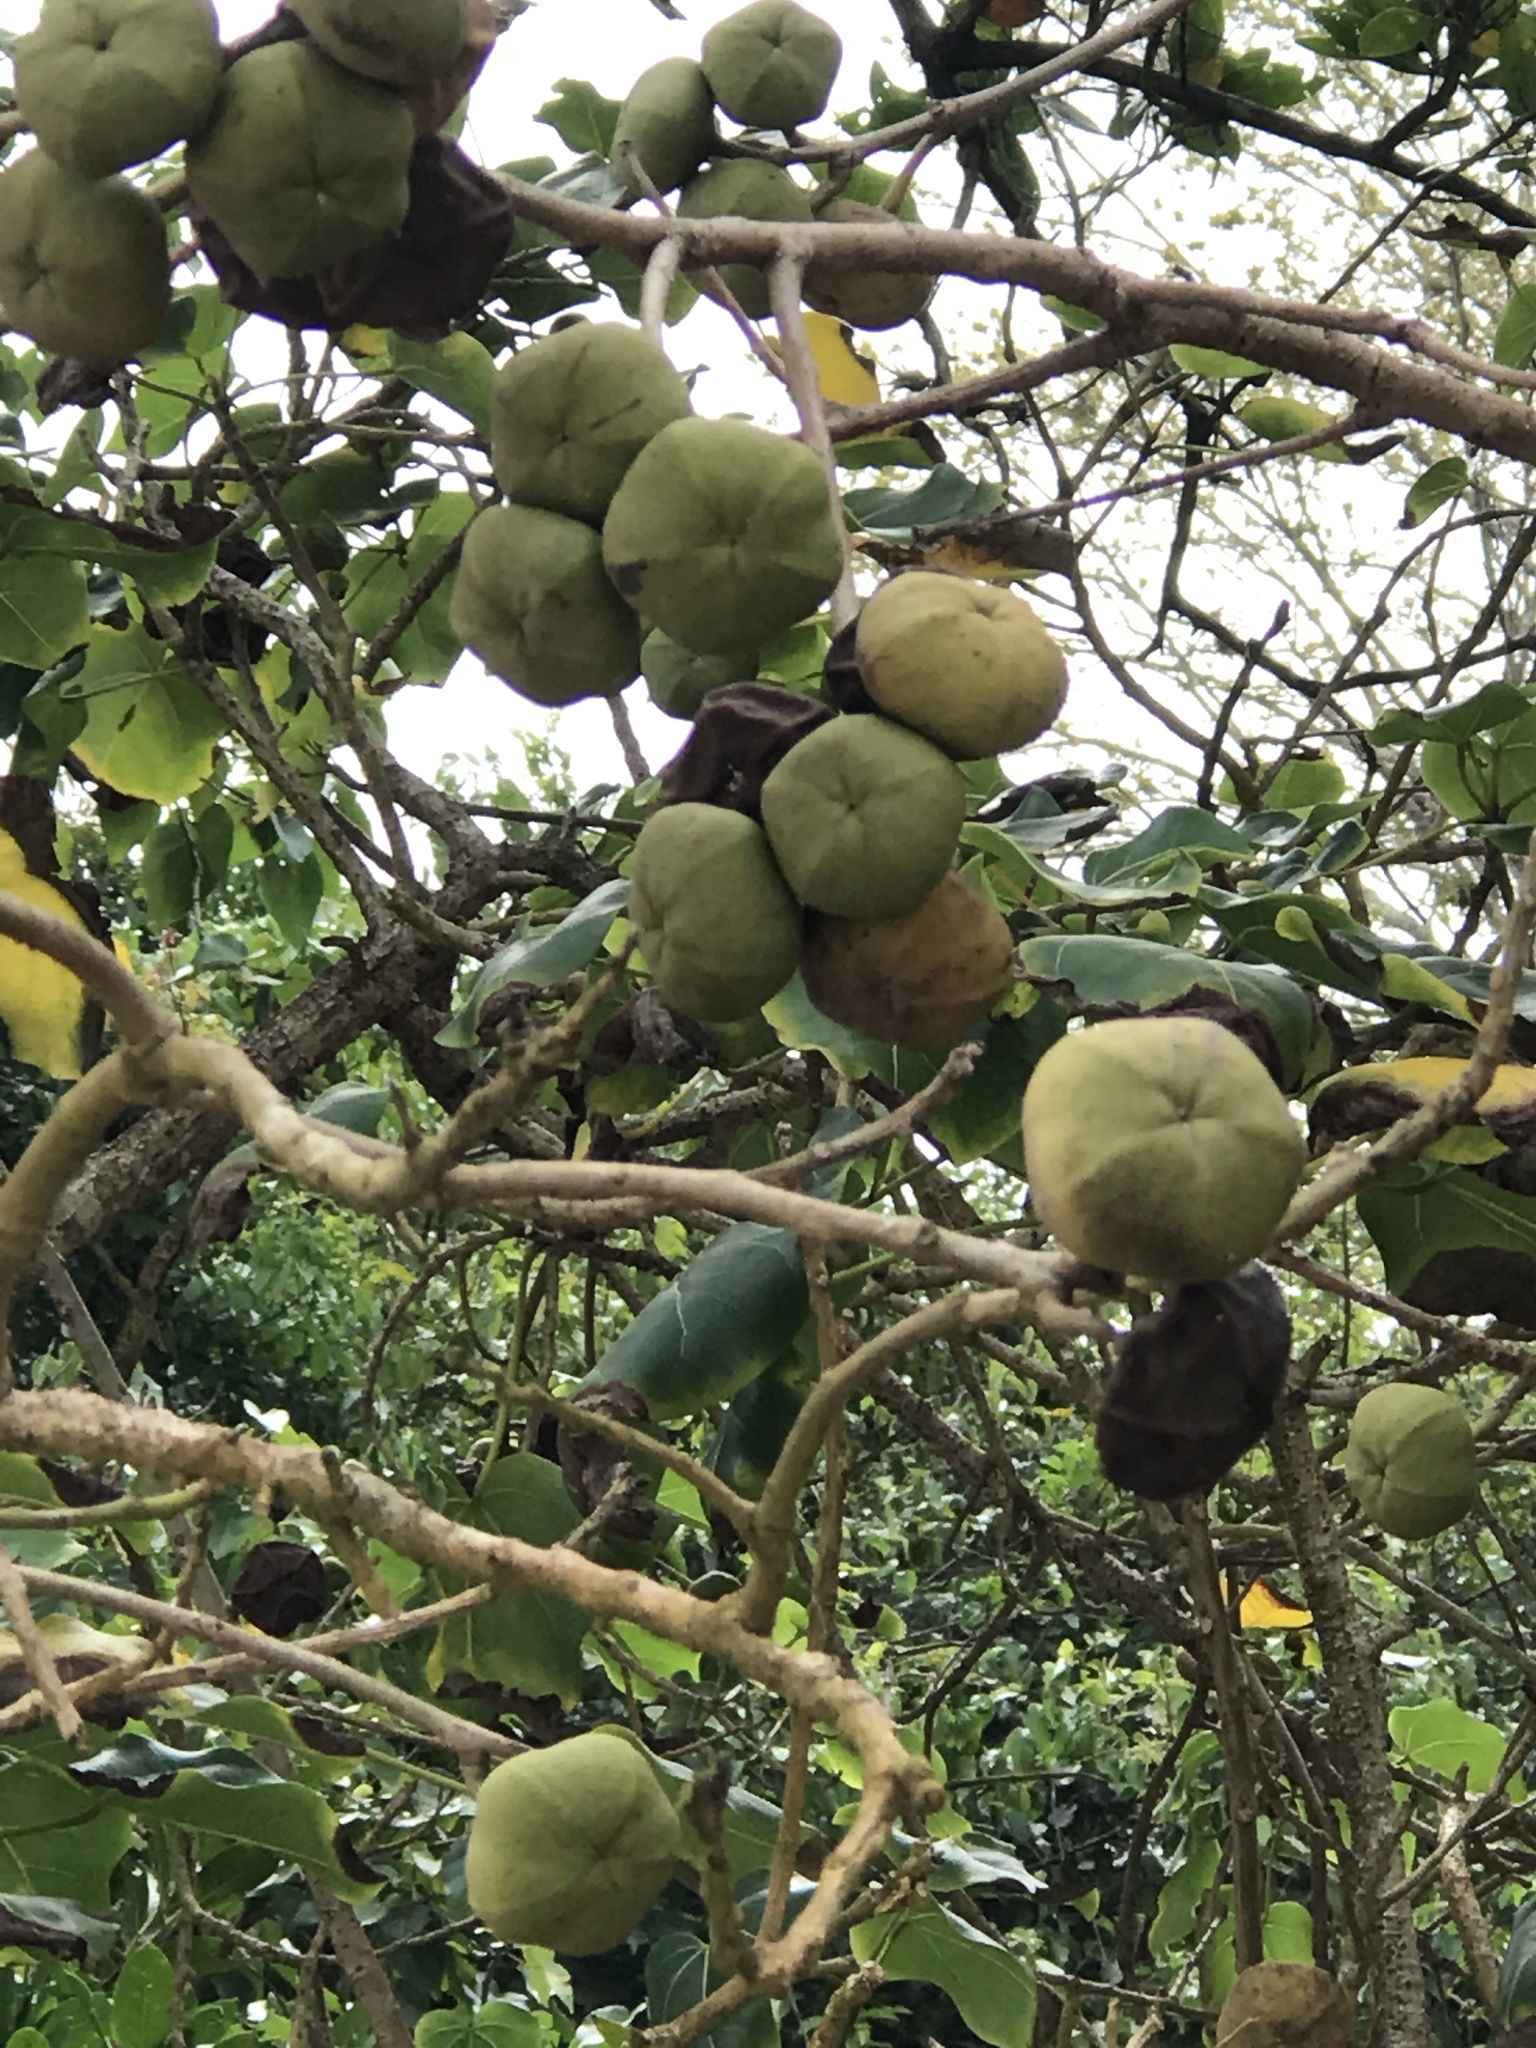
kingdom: Plantae
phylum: Tracheophyta
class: Magnoliopsida
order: Malvales
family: Malvaceae
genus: Thespesia
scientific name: Thespesia populnea
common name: Seaside mahoe
